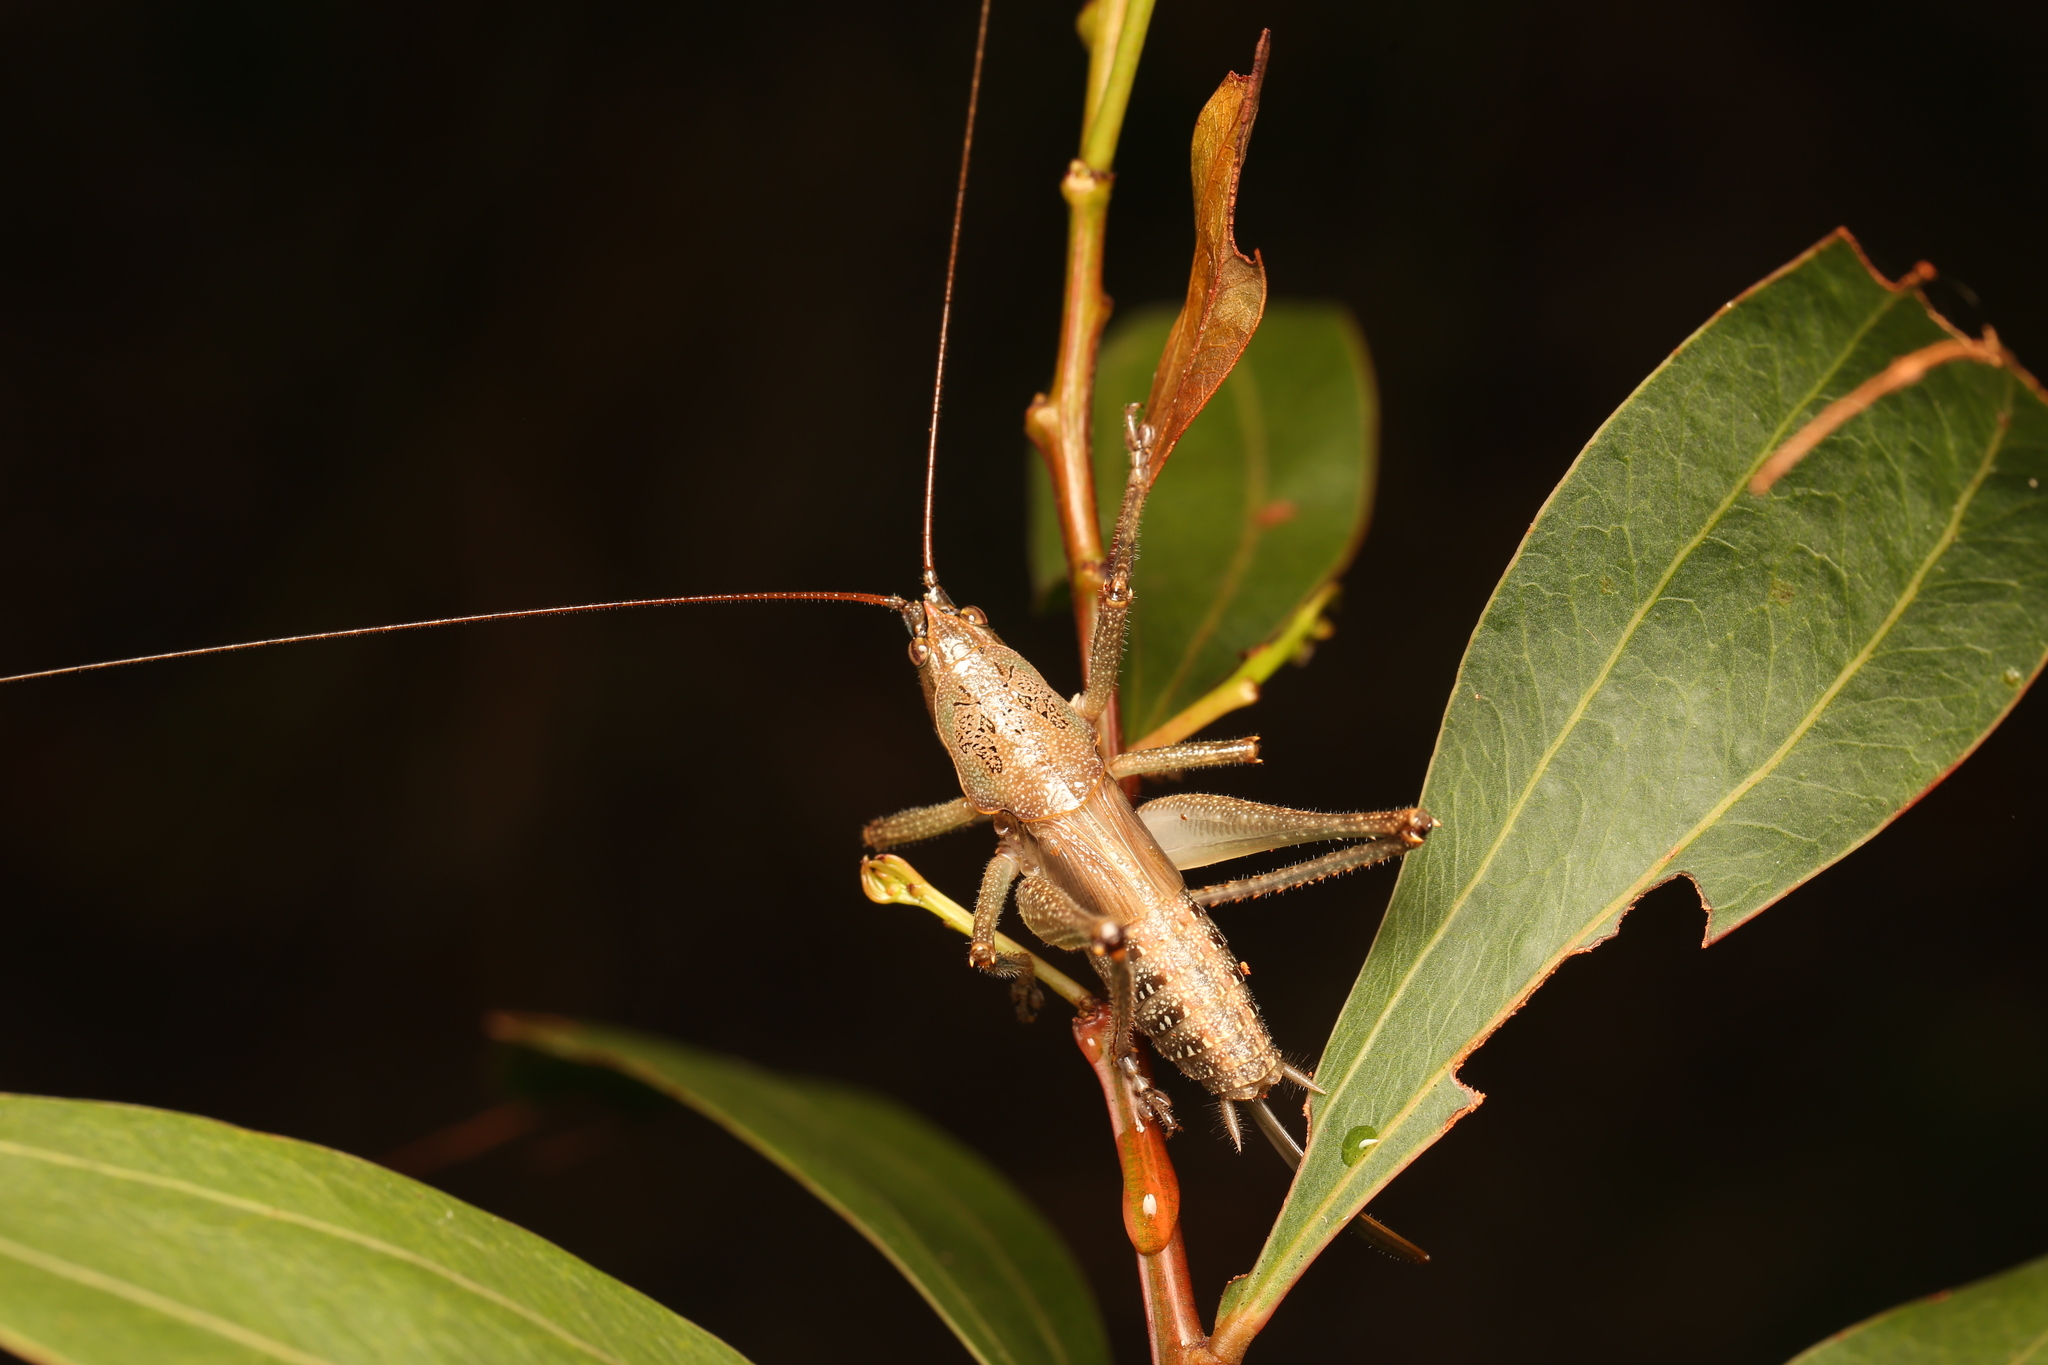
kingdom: Animalia
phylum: Arthropoda
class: Insecta
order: Orthoptera
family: Tettigoniidae
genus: Austrosalomona
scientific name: Austrosalomona falcata
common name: Olive-green coastal katydid
